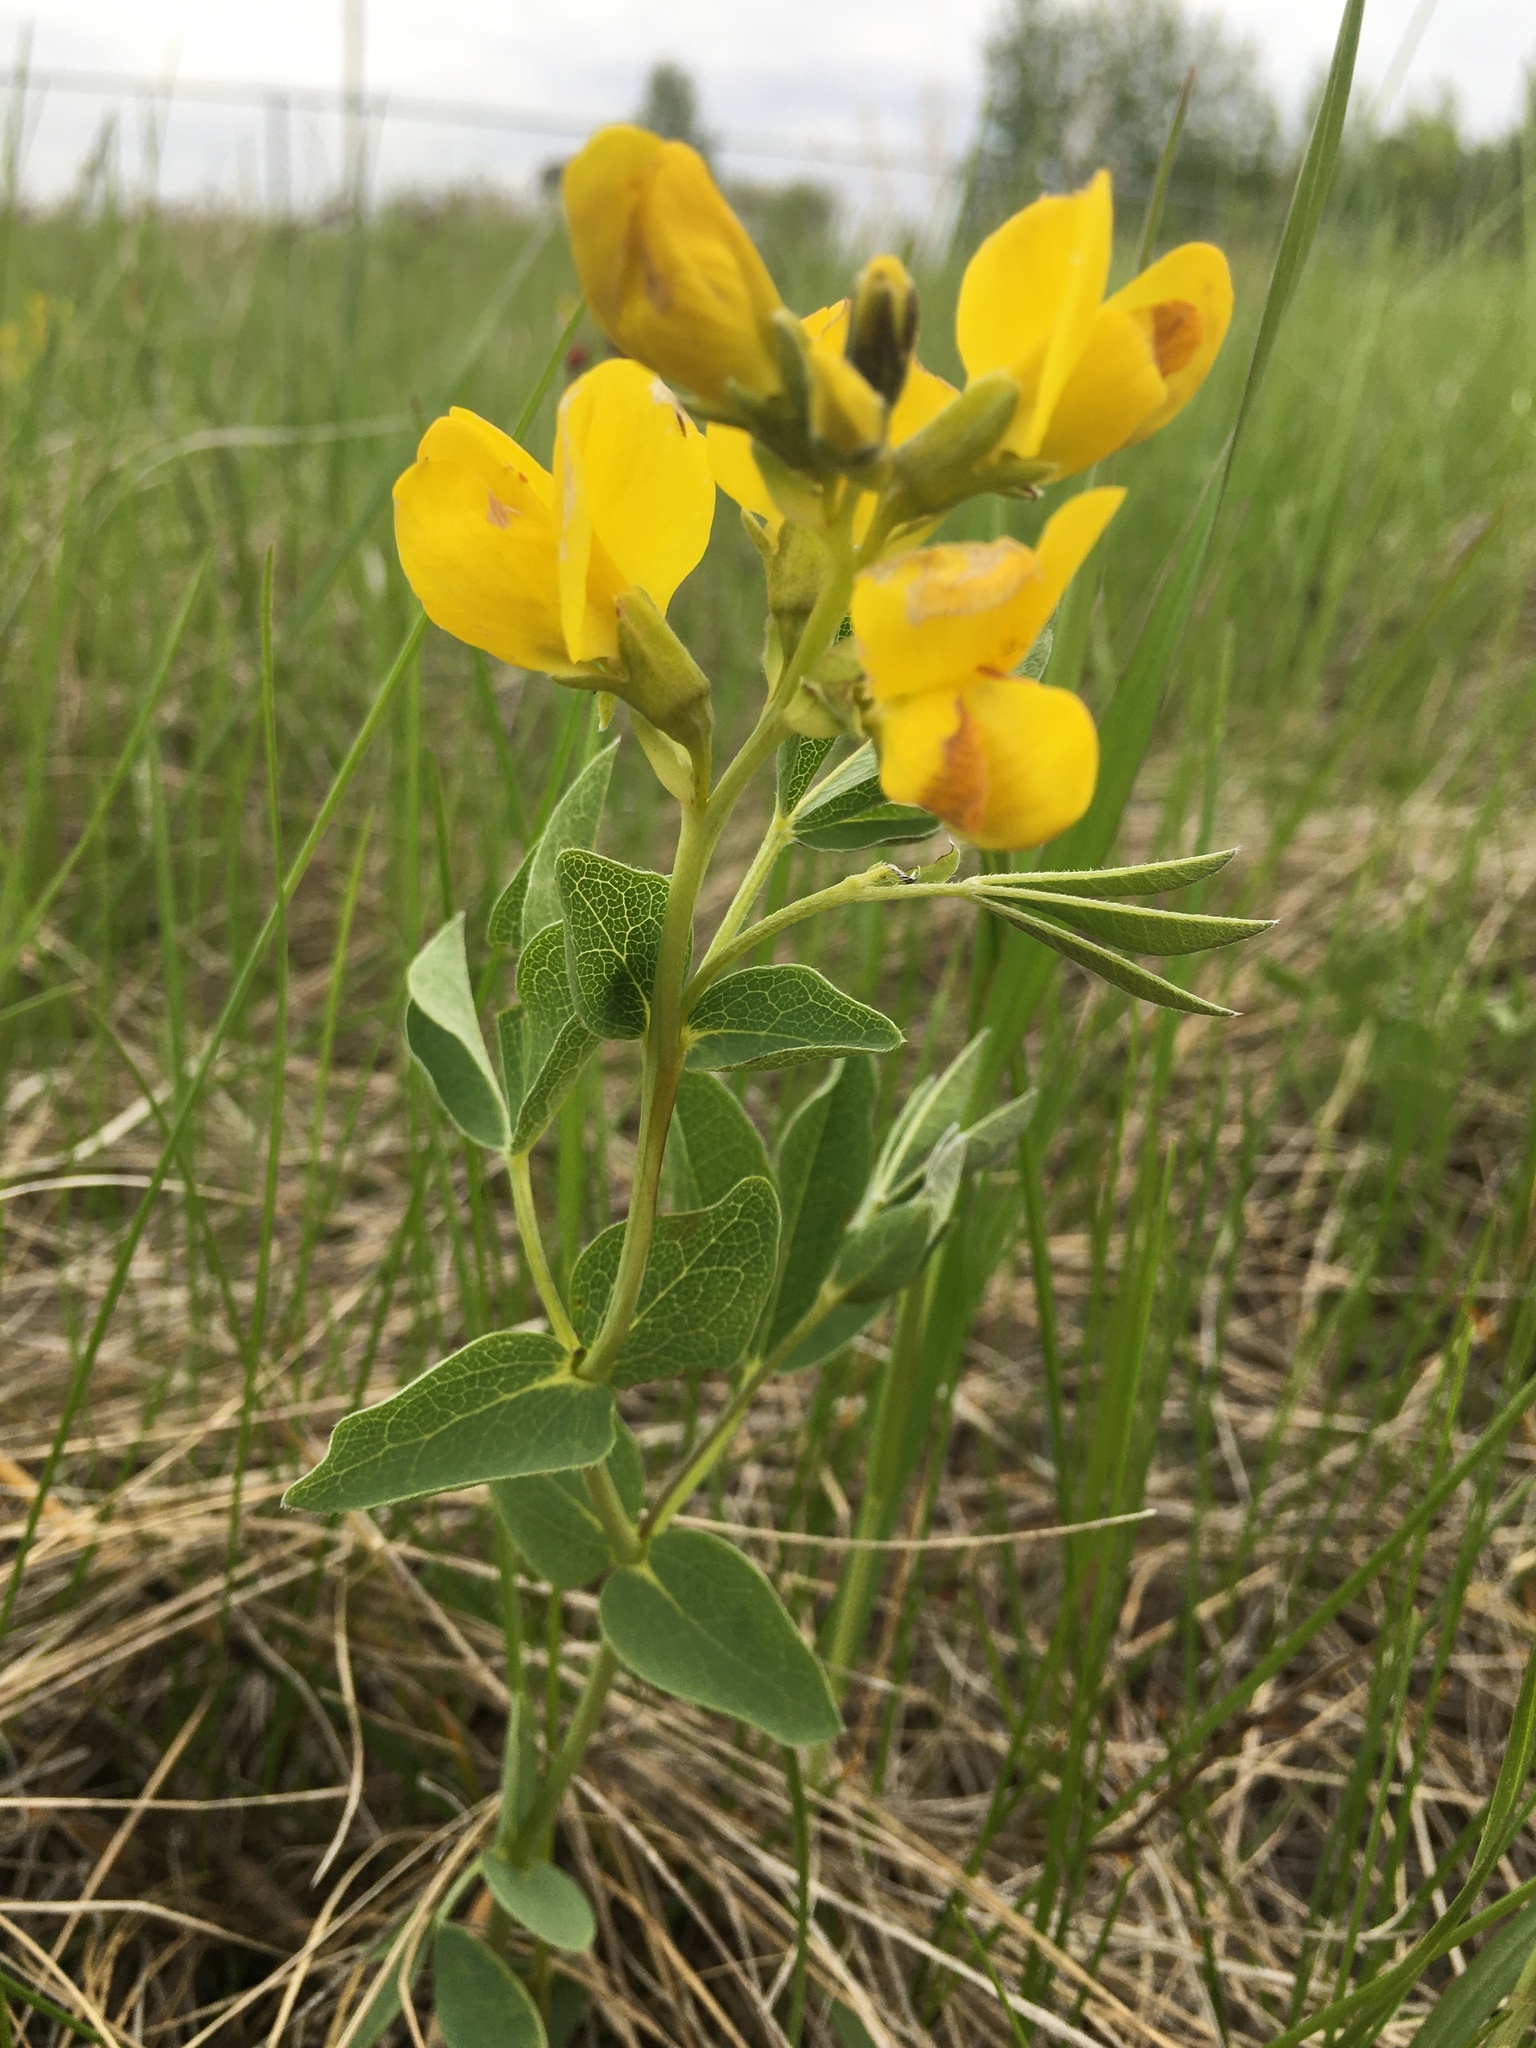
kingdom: Plantae
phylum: Tracheophyta
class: Magnoliopsida
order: Fabales
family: Fabaceae
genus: Thermopsis
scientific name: Thermopsis rhombifolia
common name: Circle-pod-pea
